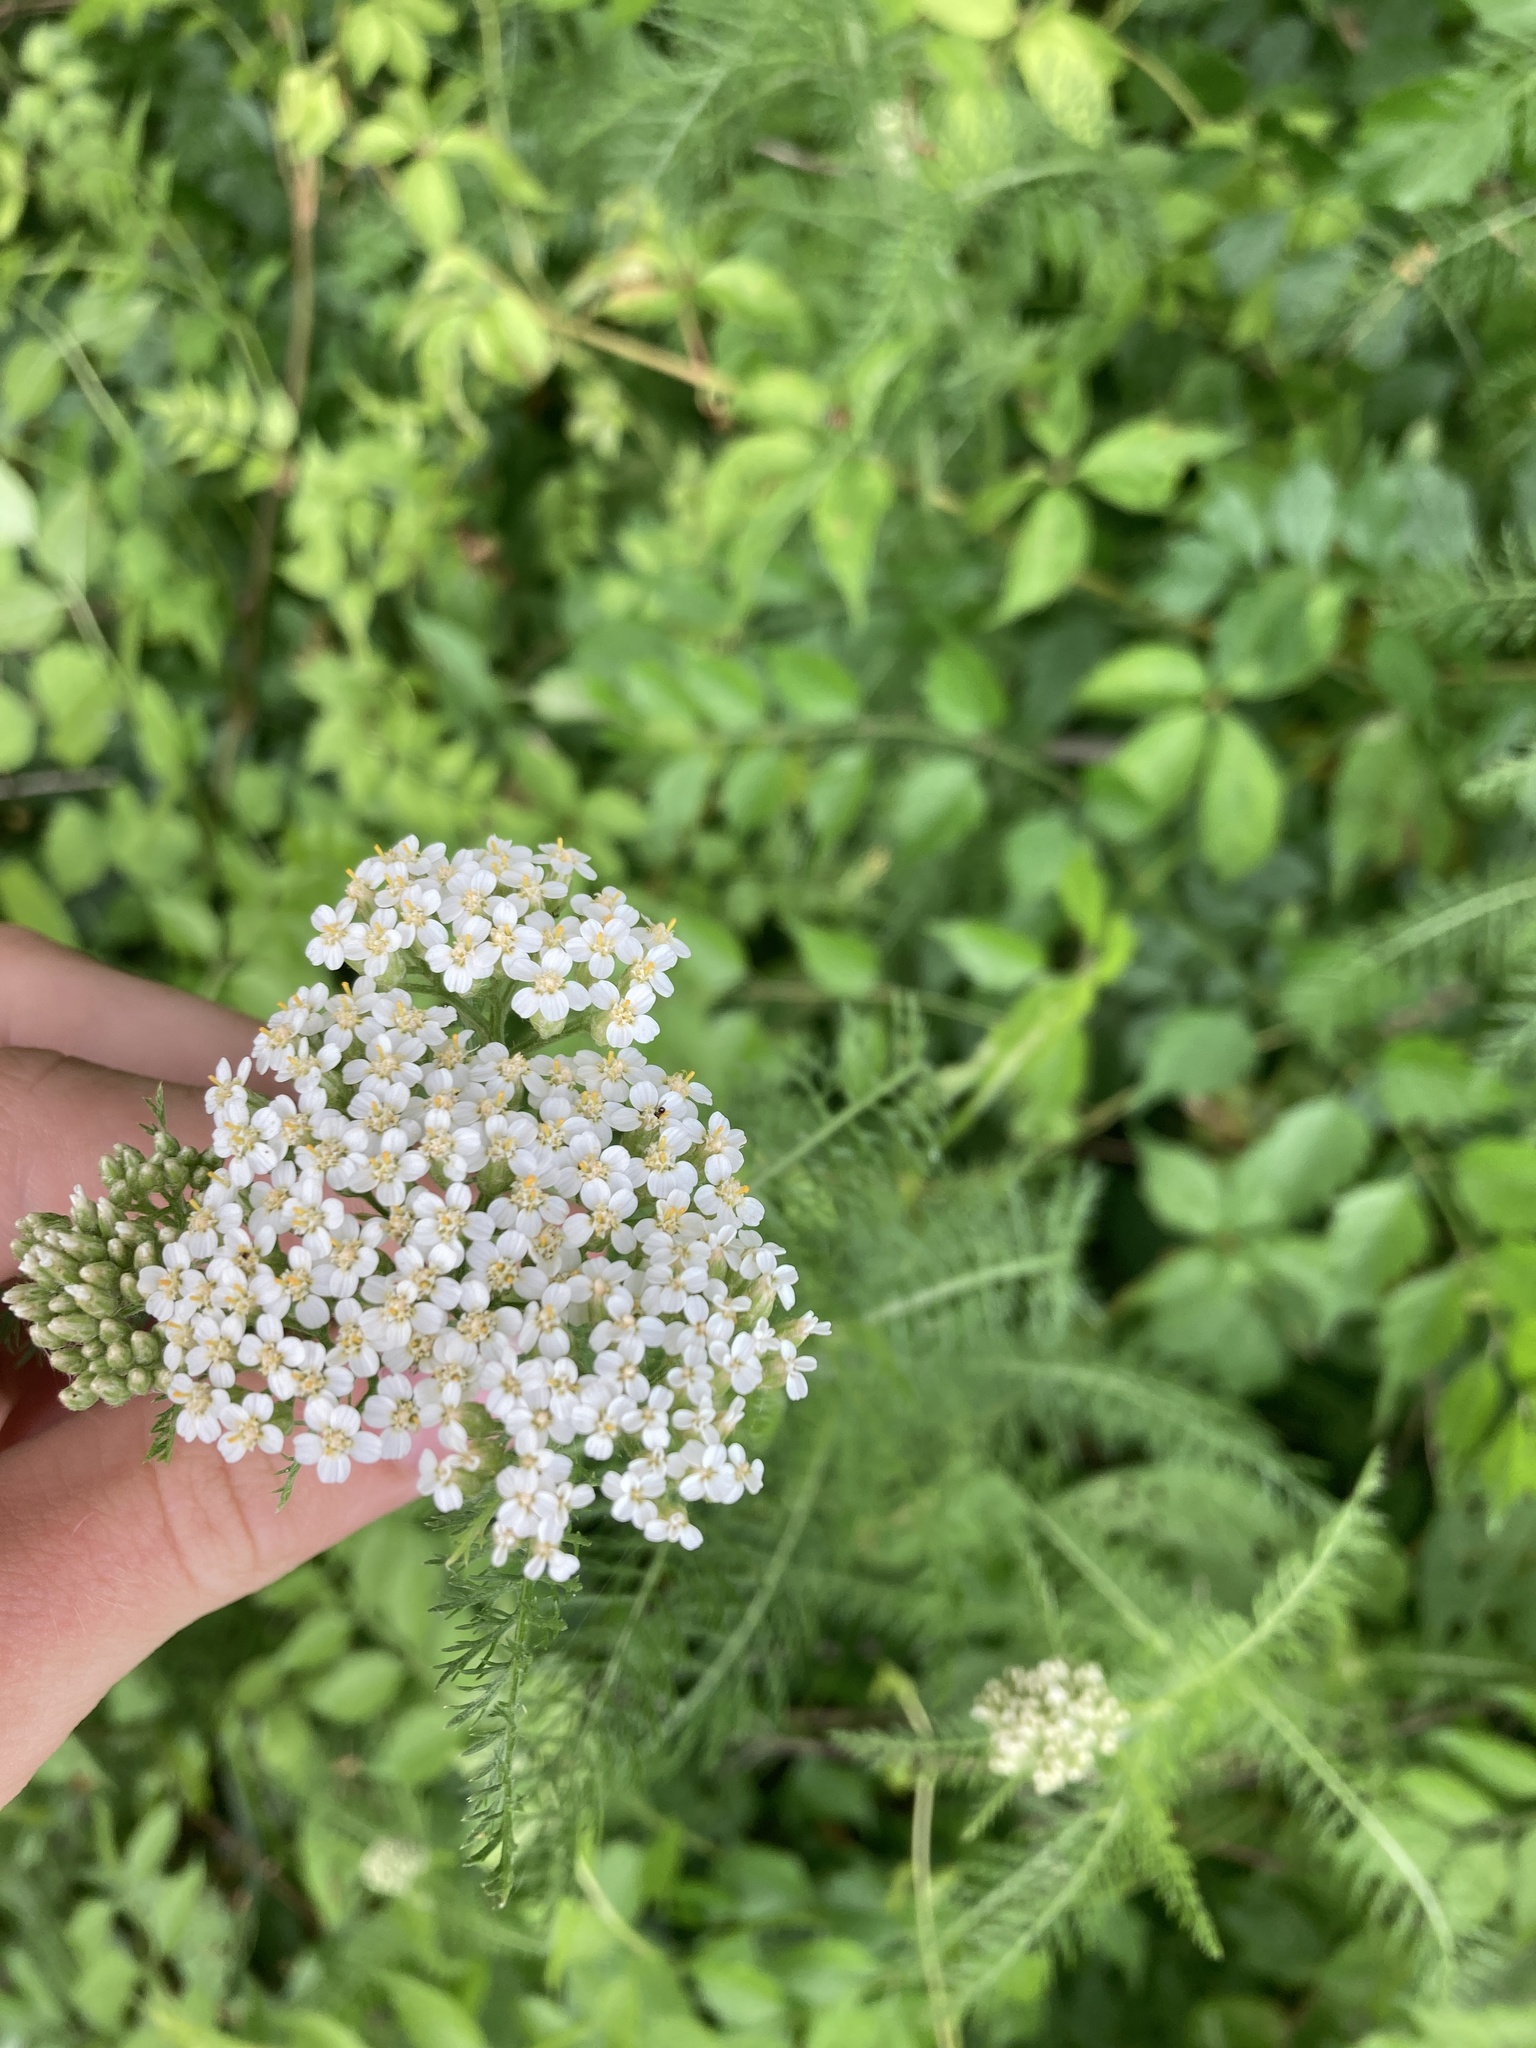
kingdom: Plantae
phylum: Tracheophyta
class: Magnoliopsida
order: Asterales
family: Asteraceae
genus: Achillea
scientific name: Achillea millefolium
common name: Yarrow
